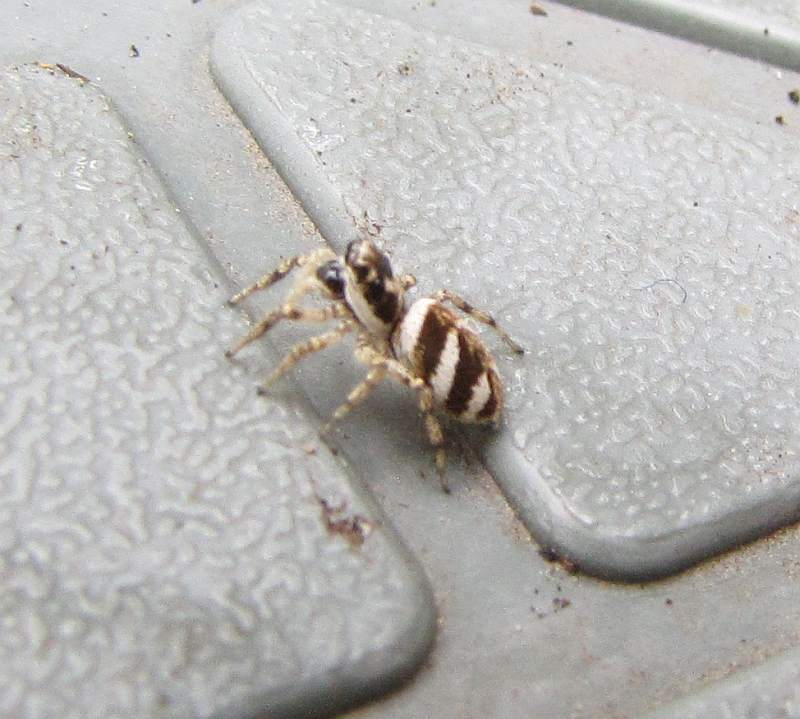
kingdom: Animalia
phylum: Arthropoda
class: Arachnida
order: Araneae
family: Salticidae
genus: Salticus
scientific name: Salticus scenicus
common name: Zebra jumper
